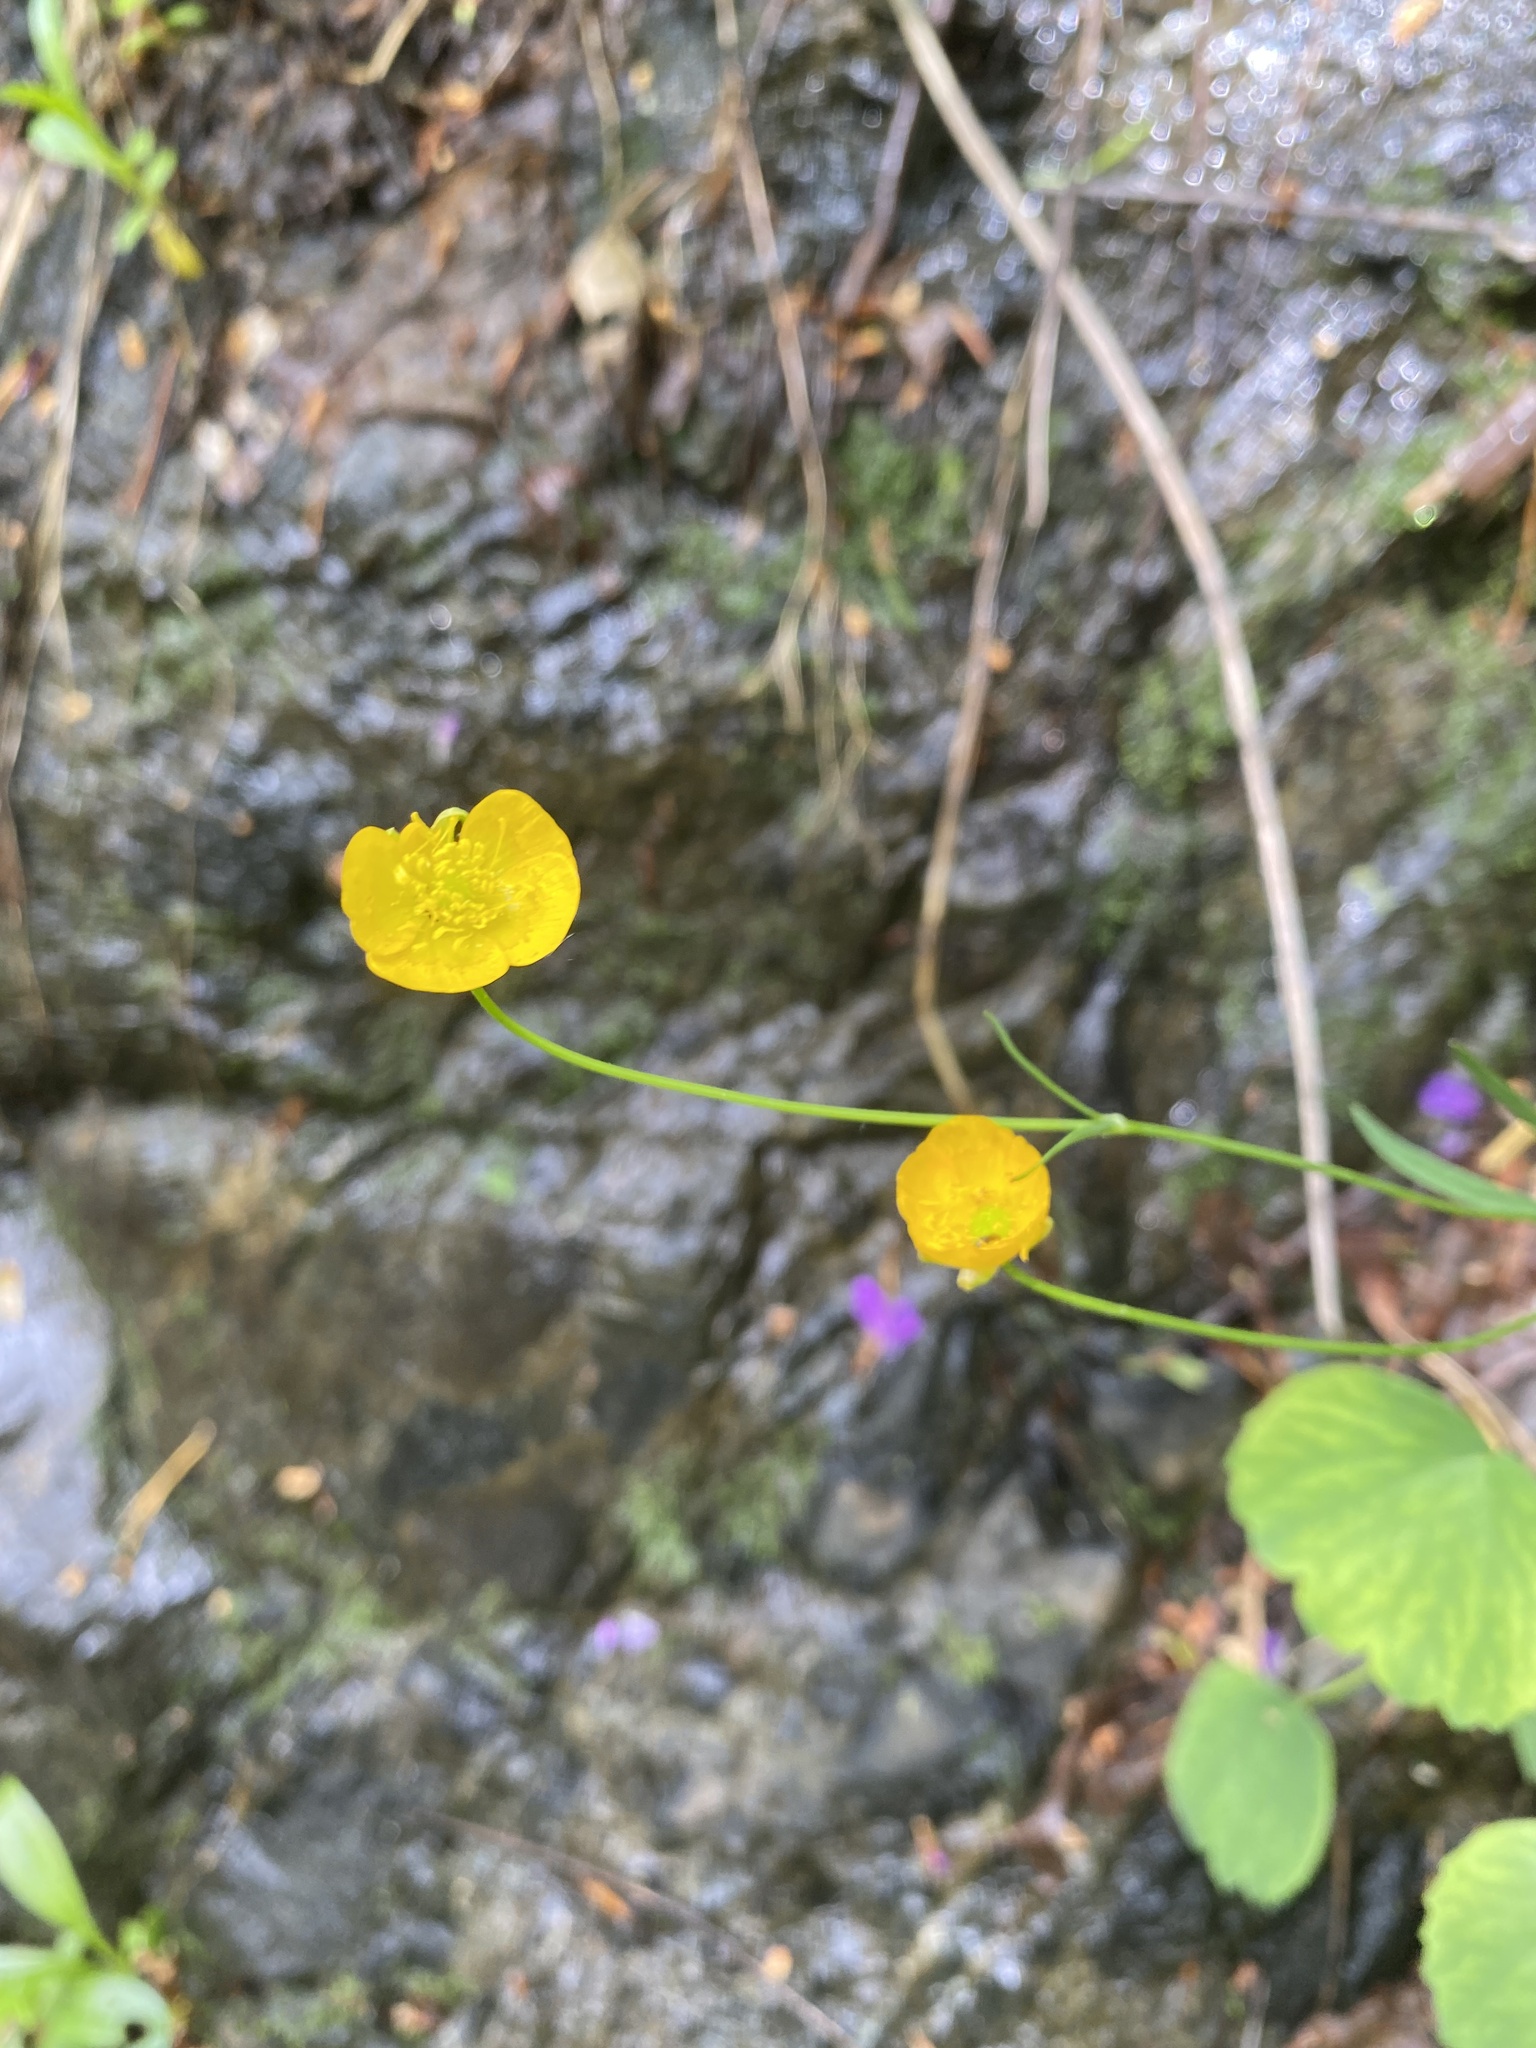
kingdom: Plantae
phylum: Tracheophyta
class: Magnoliopsida
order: Ranunculales
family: Ranunculaceae
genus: Ranunculus
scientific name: Ranunculus subtilis
